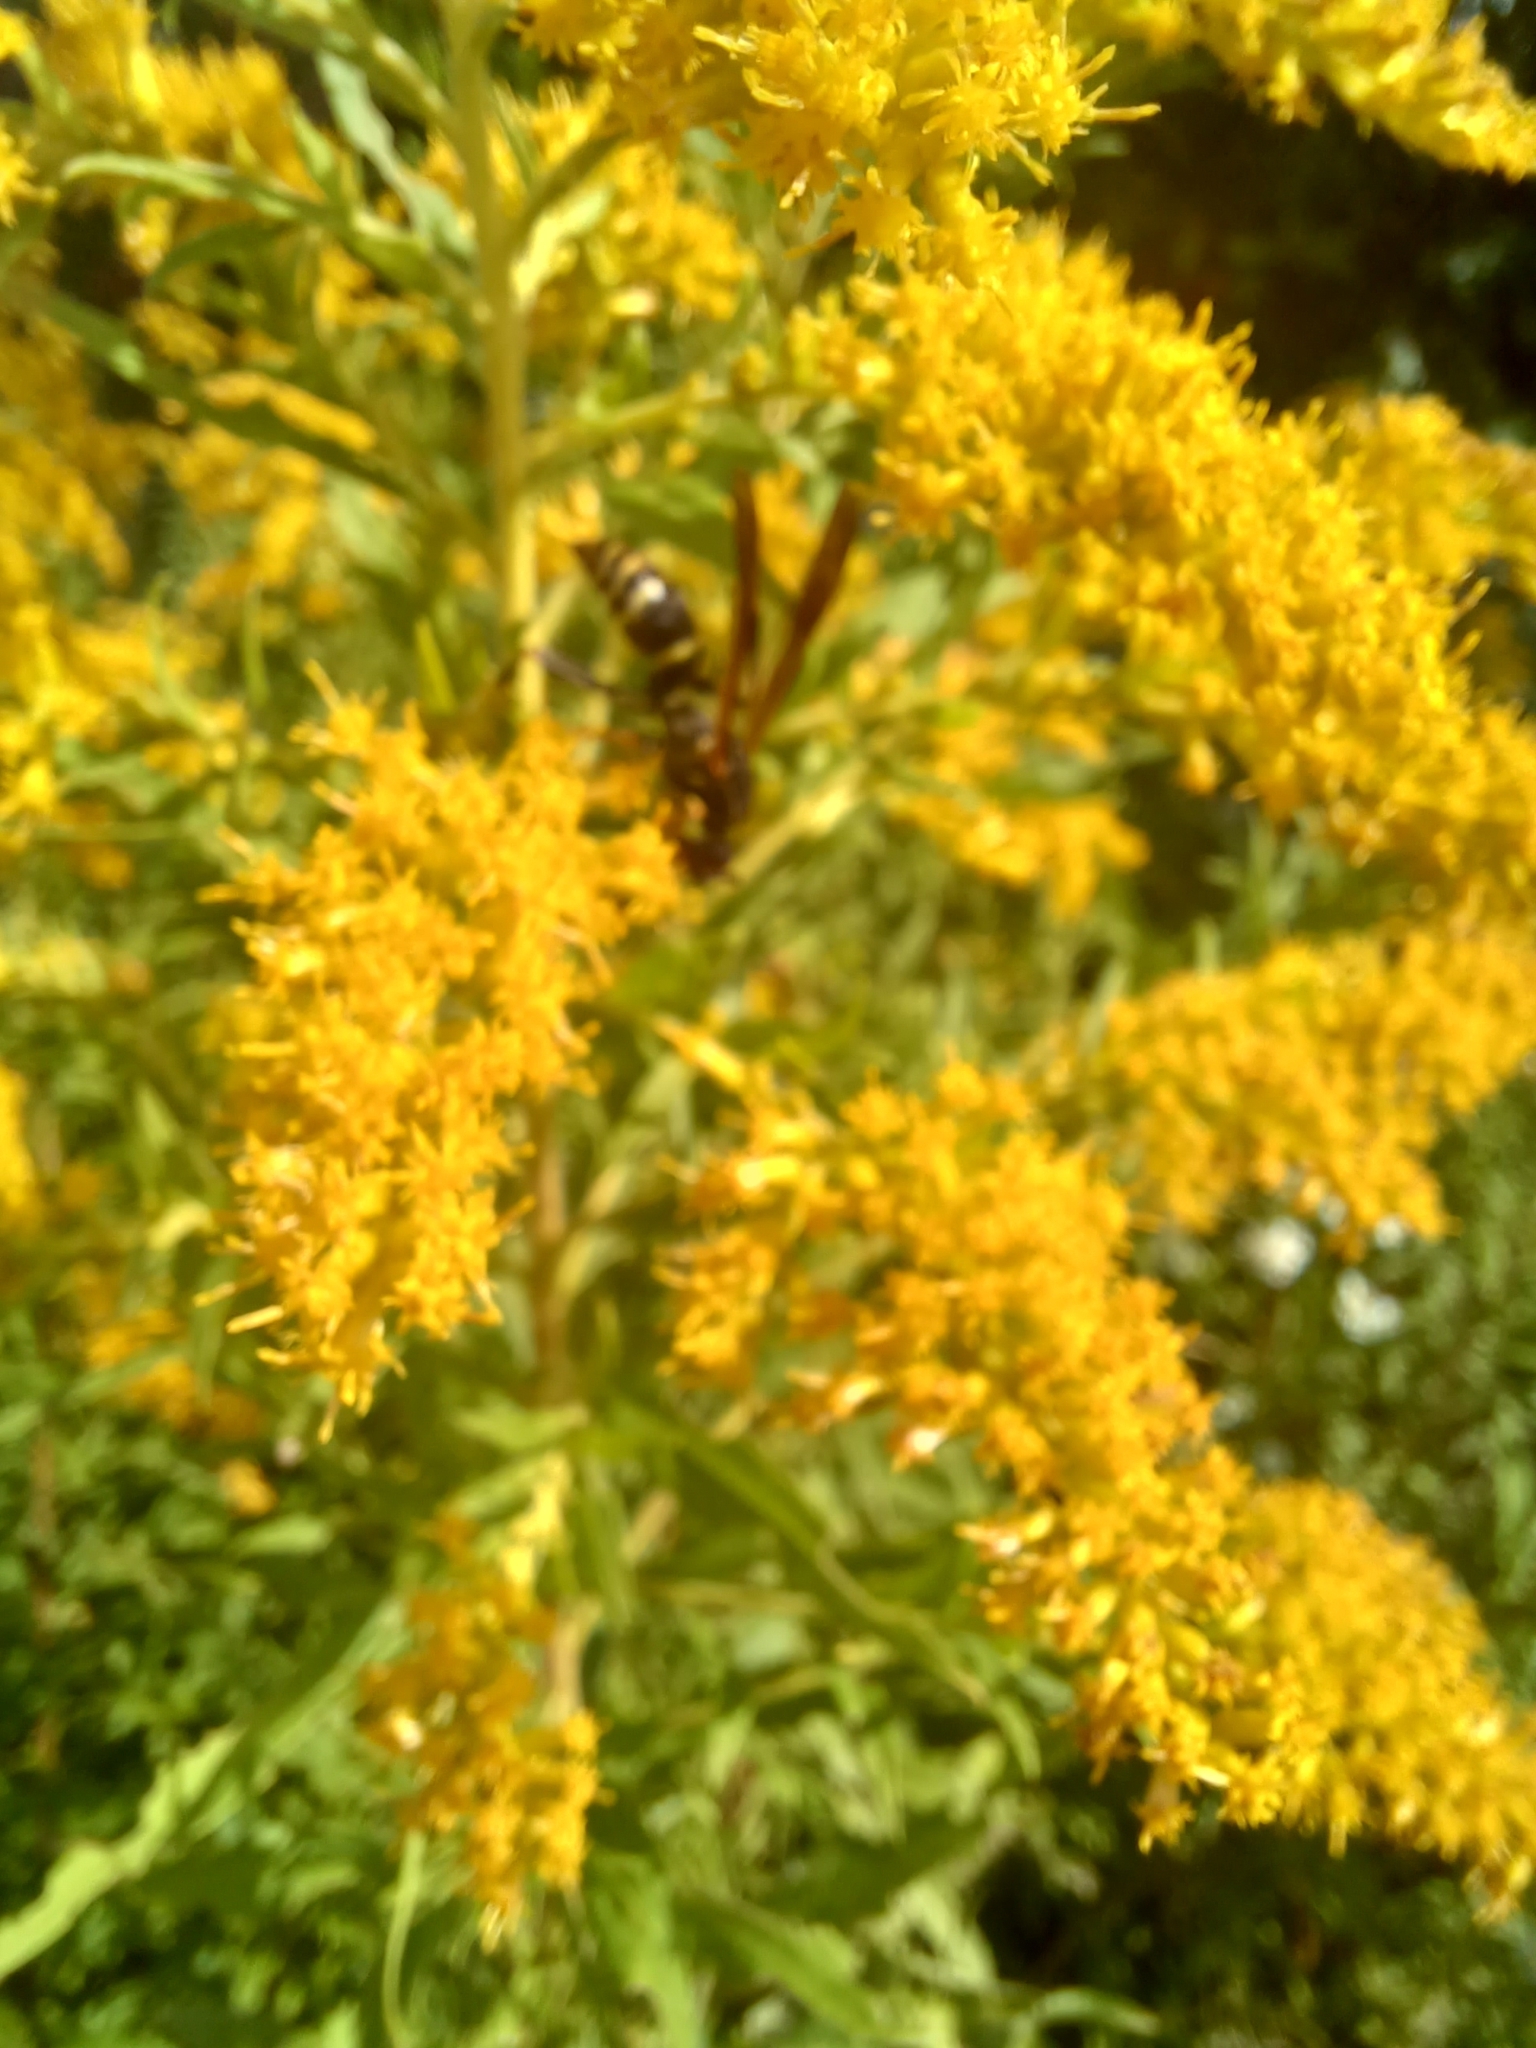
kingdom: Animalia
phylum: Arthropoda
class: Insecta
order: Hymenoptera
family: Eumenidae
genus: Polistes
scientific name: Polistes fuscatus
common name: Dark paper wasp
